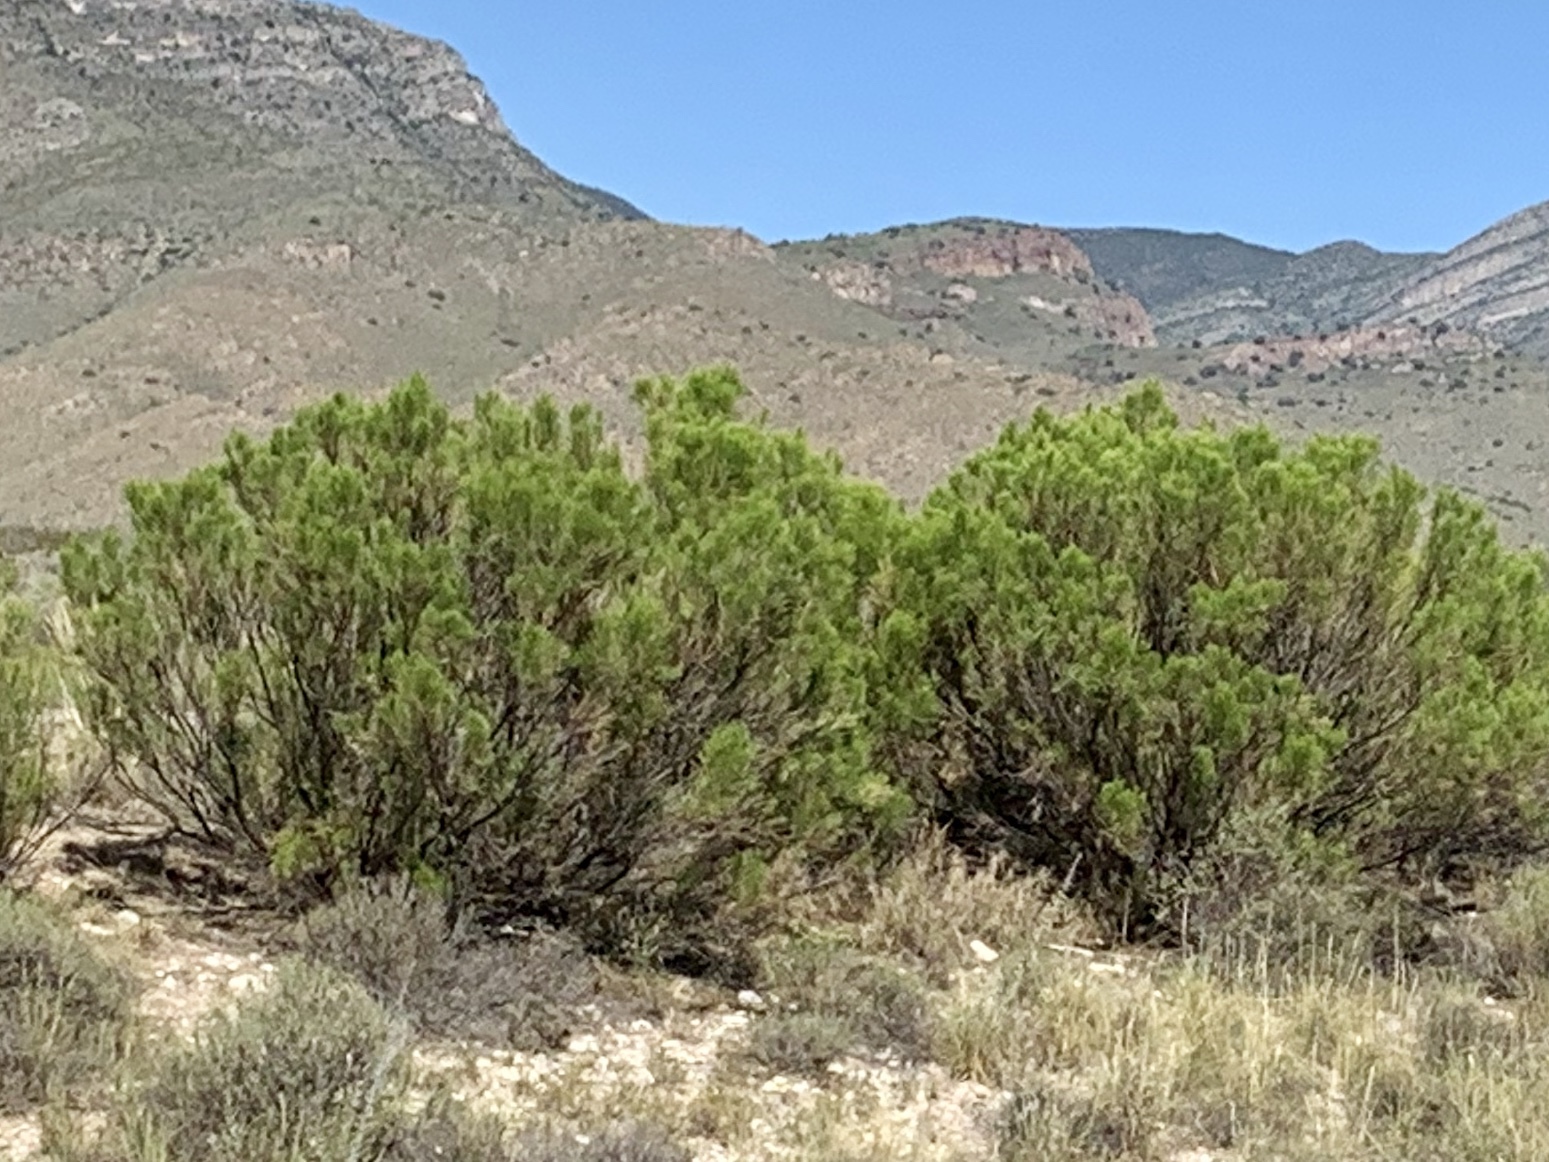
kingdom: Plantae
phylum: Tracheophyta
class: Magnoliopsida
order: Asterales
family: Asteraceae
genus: Baccharis
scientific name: Baccharis sarothroides
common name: Desert-broom
